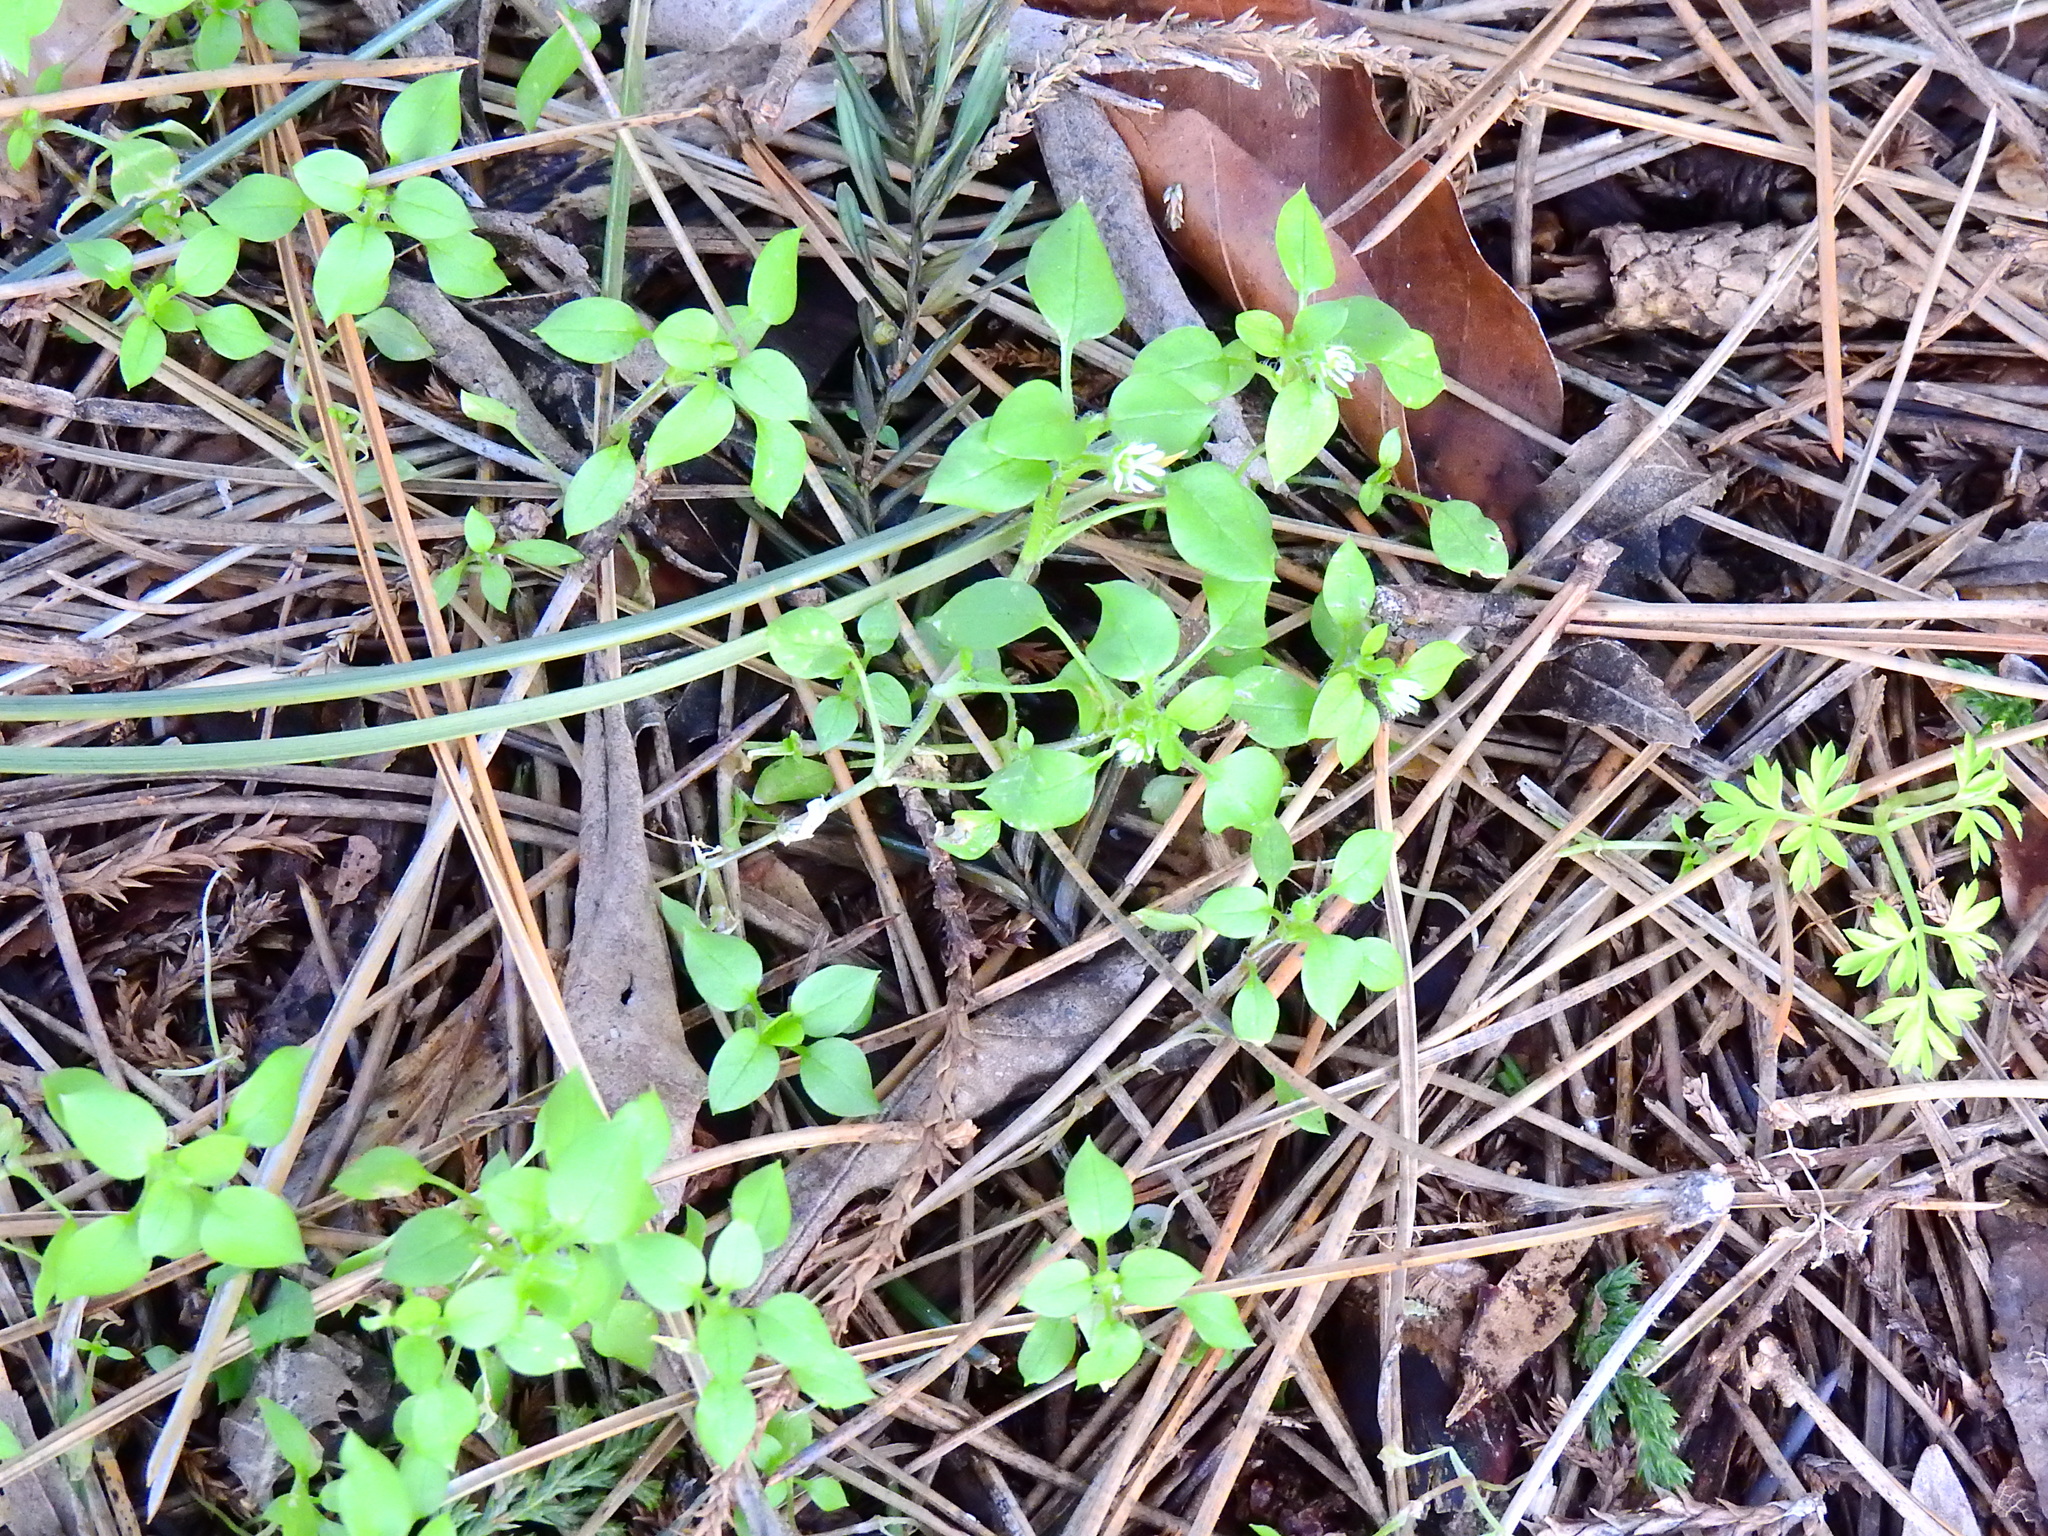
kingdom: Plantae
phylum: Tracheophyta
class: Magnoliopsida
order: Caryophyllales
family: Caryophyllaceae
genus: Stellaria
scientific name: Stellaria media
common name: Common chickweed
